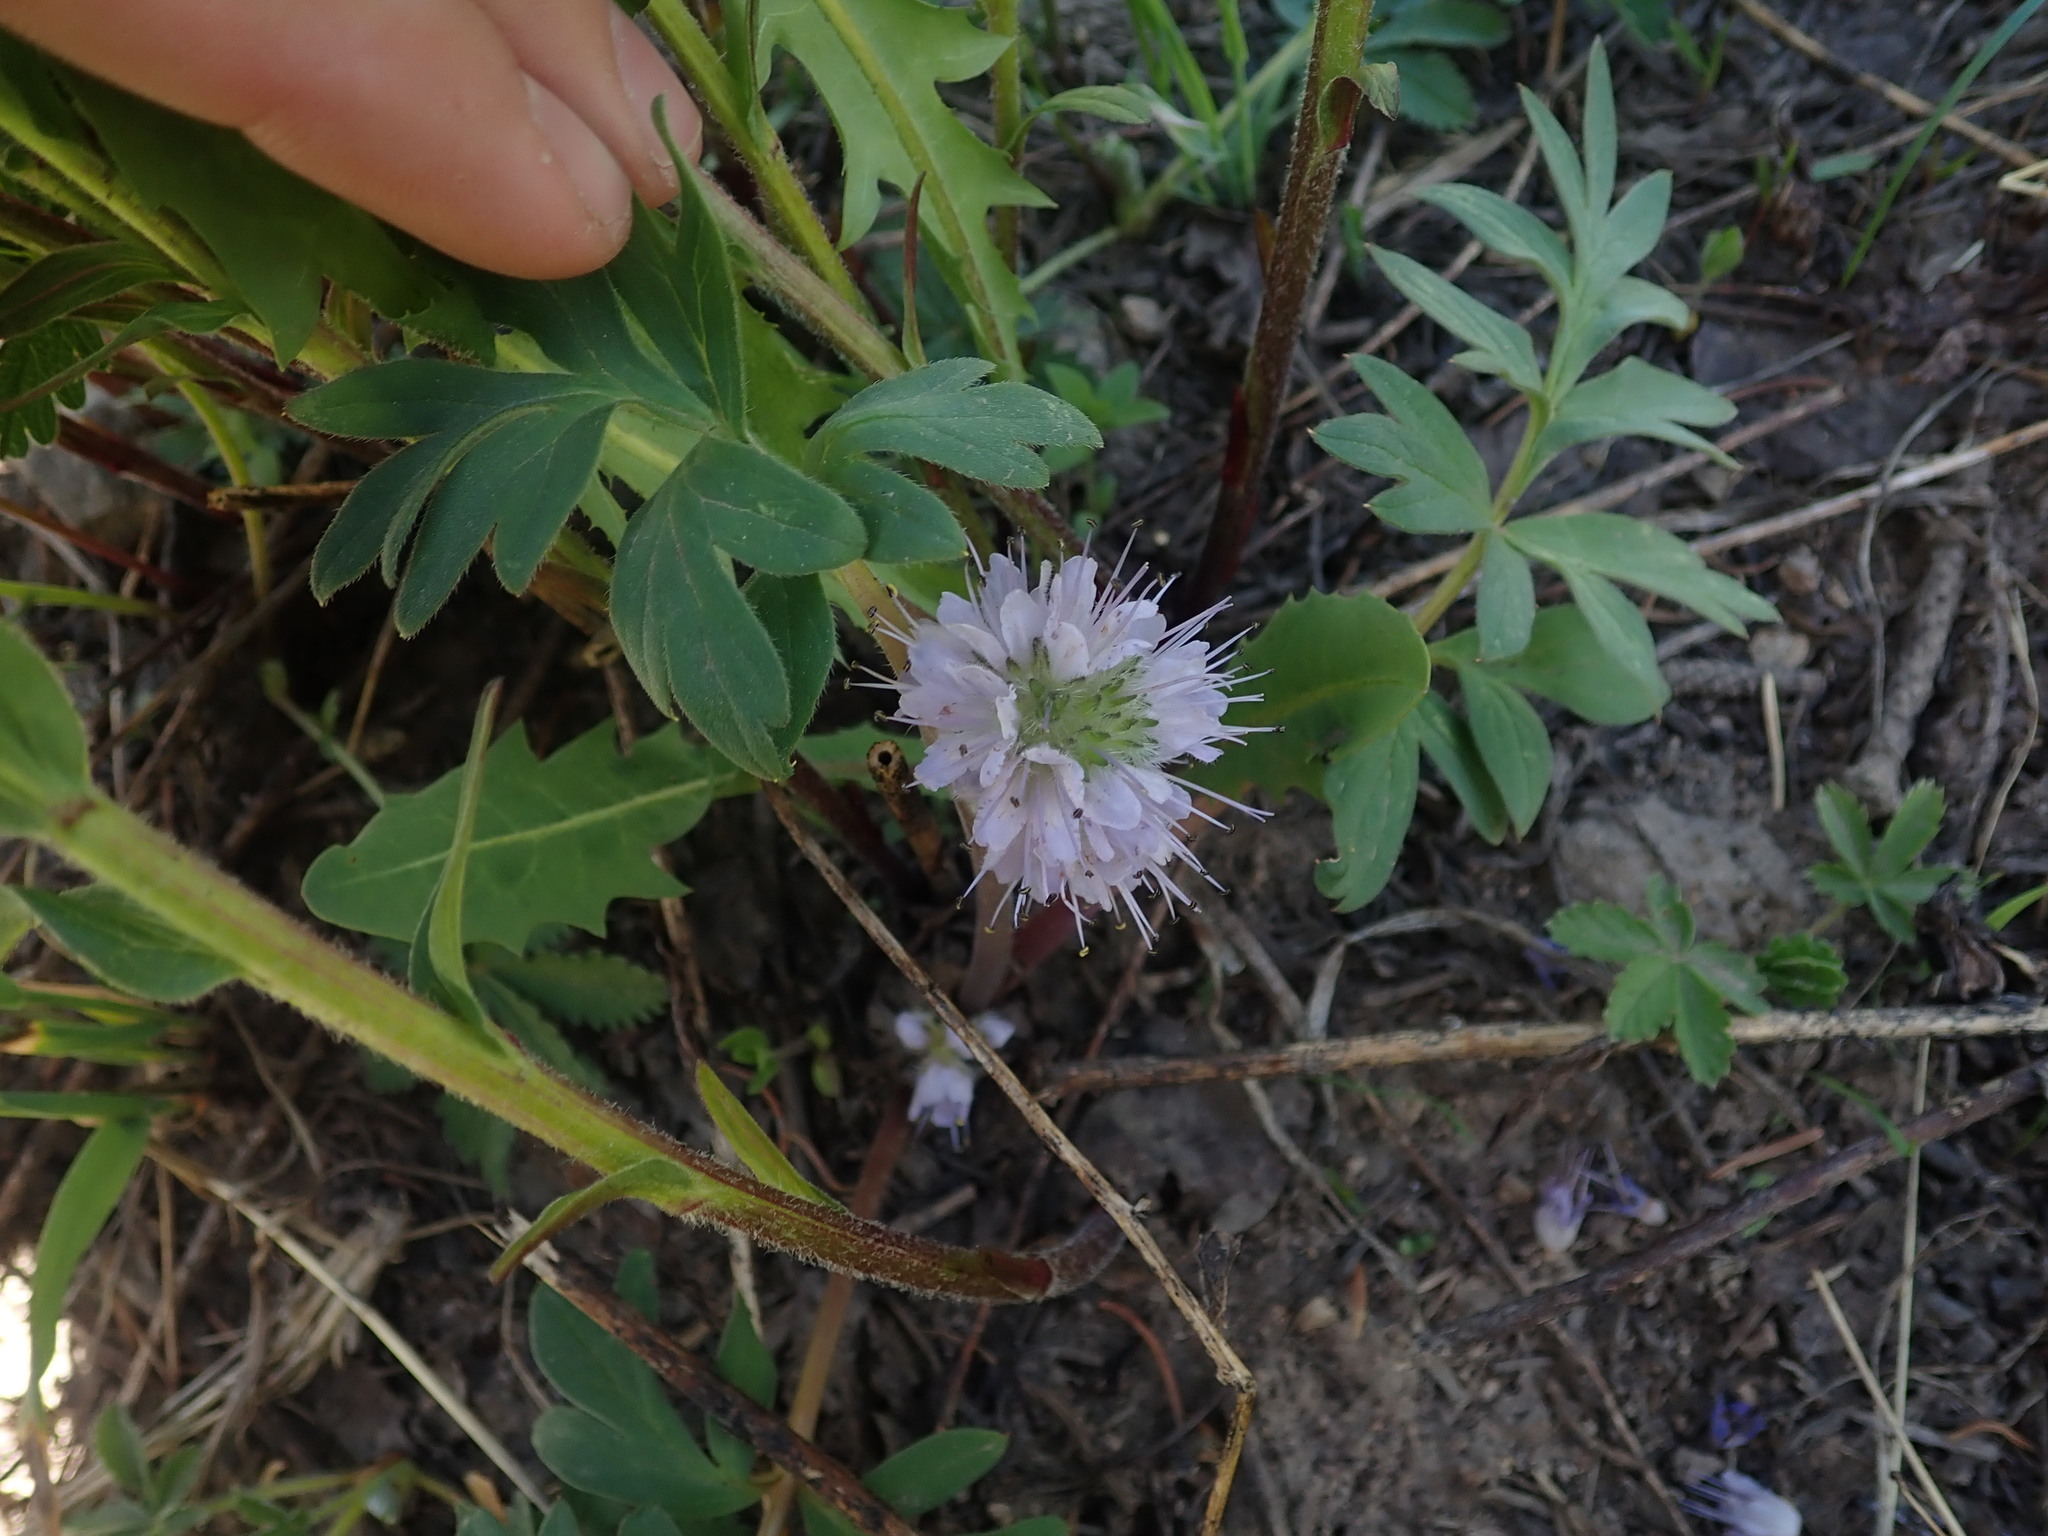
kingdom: Plantae
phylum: Tracheophyta
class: Magnoliopsida
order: Boraginales
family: Hydrophyllaceae
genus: Hydrophyllum
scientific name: Hydrophyllum capitatum
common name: Woollen-breeches
